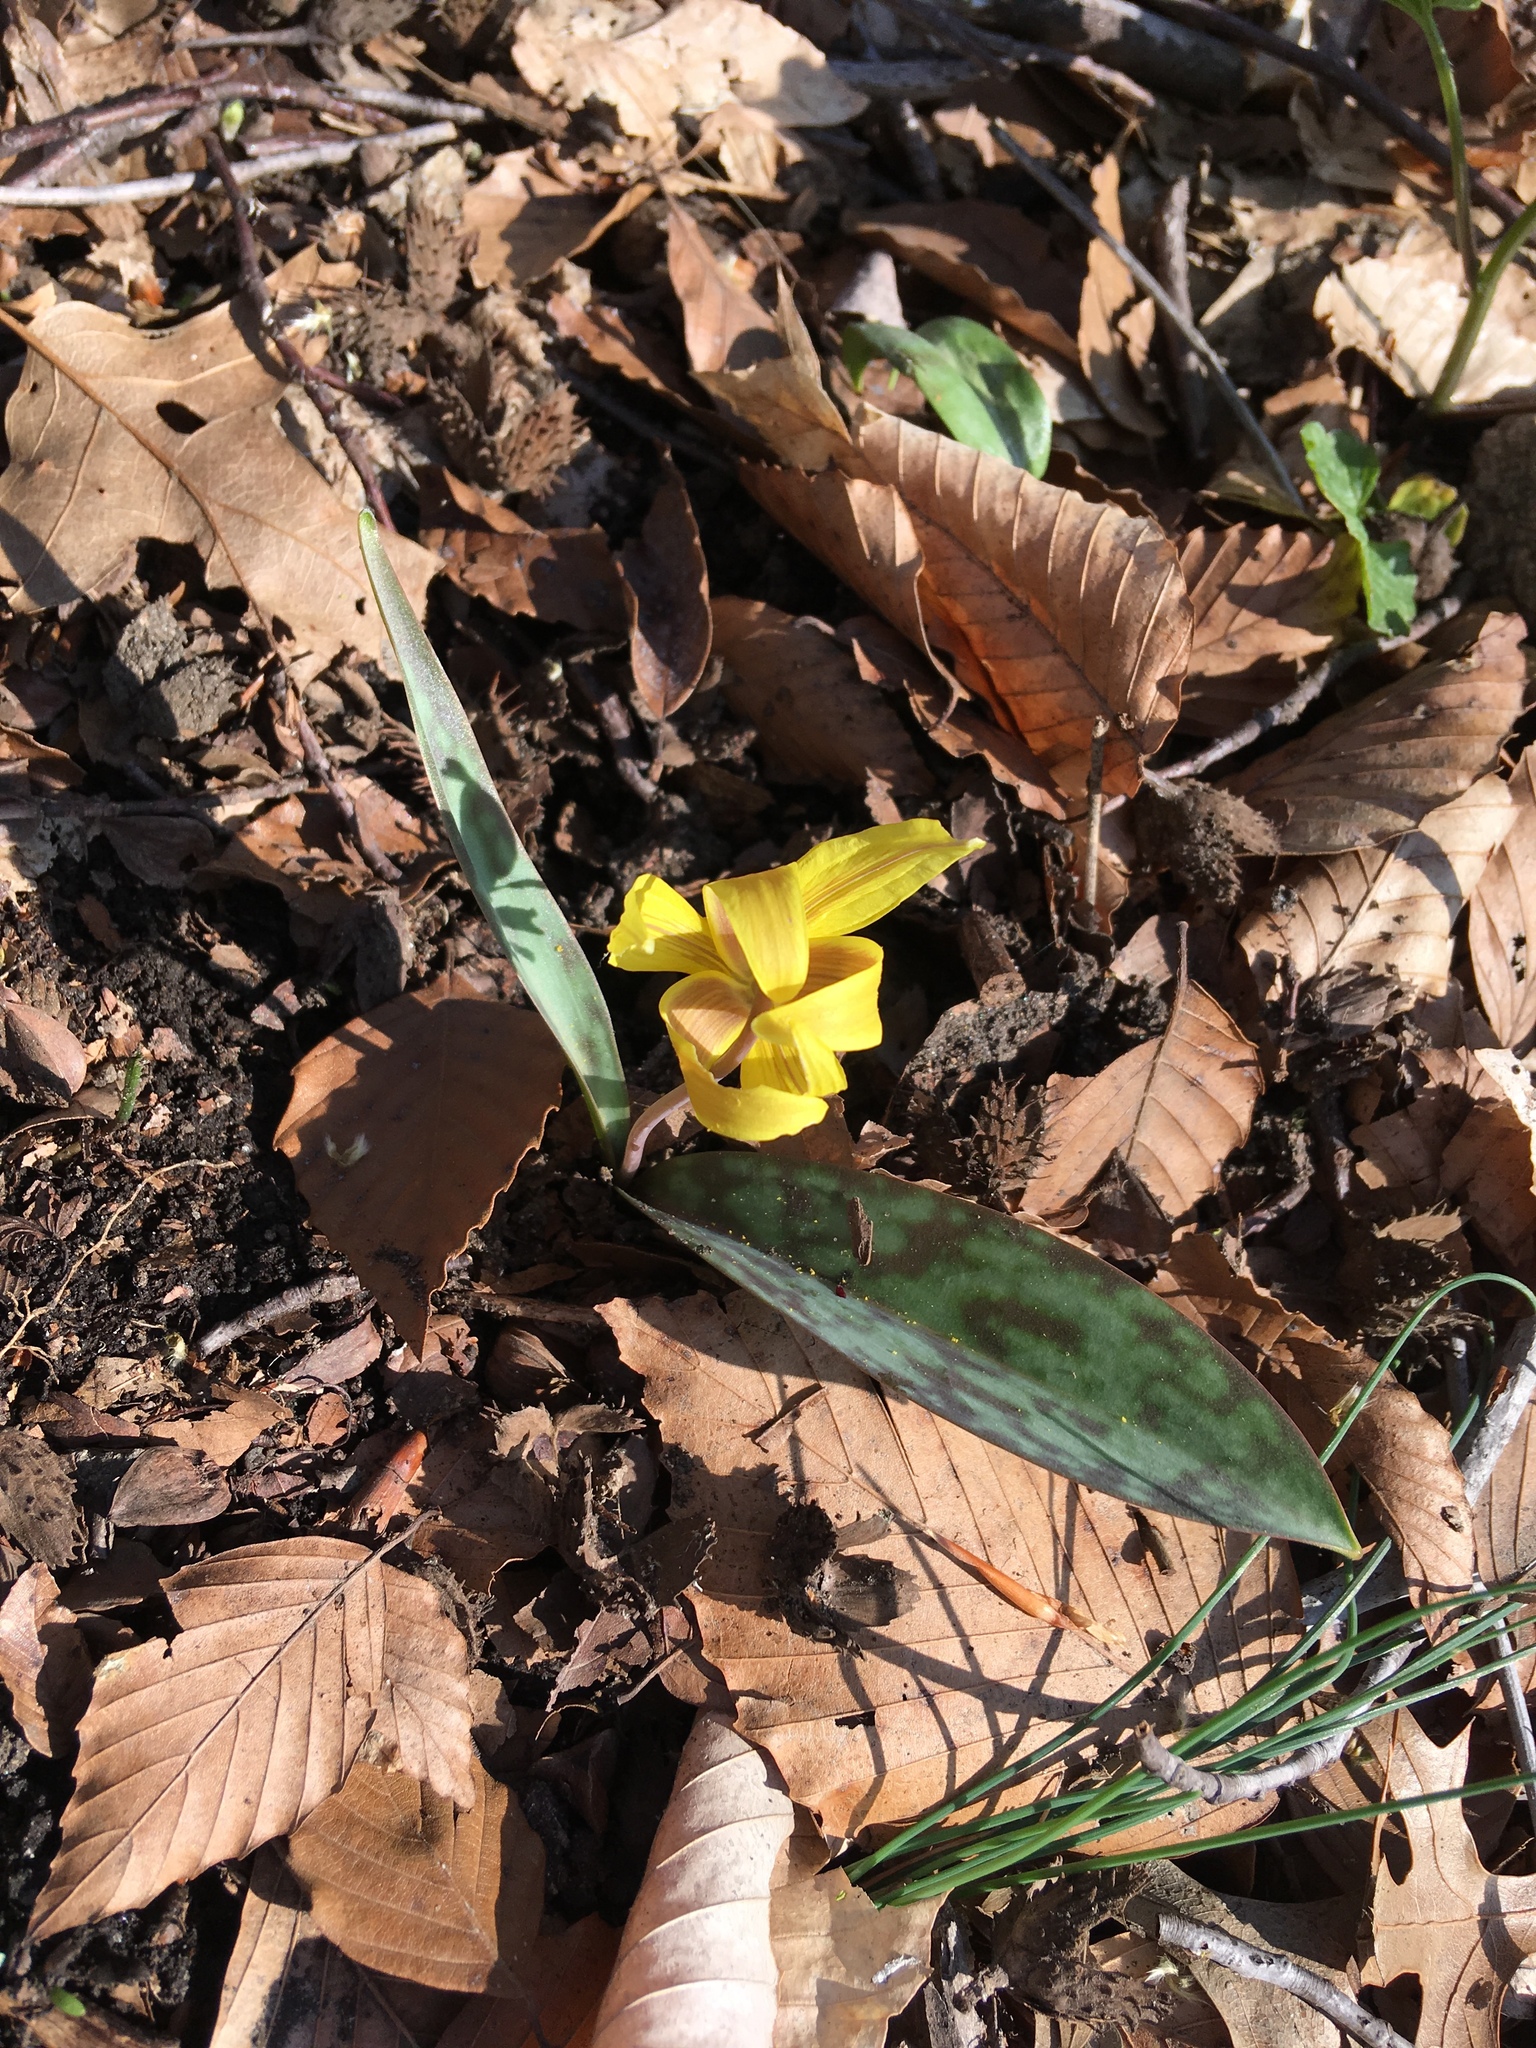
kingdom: Plantae
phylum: Tracheophyta
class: Liliopsida
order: Liliales
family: Liliaceae
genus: Erythronium
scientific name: Erythronium americanum
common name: Yellow adder's-tongue
